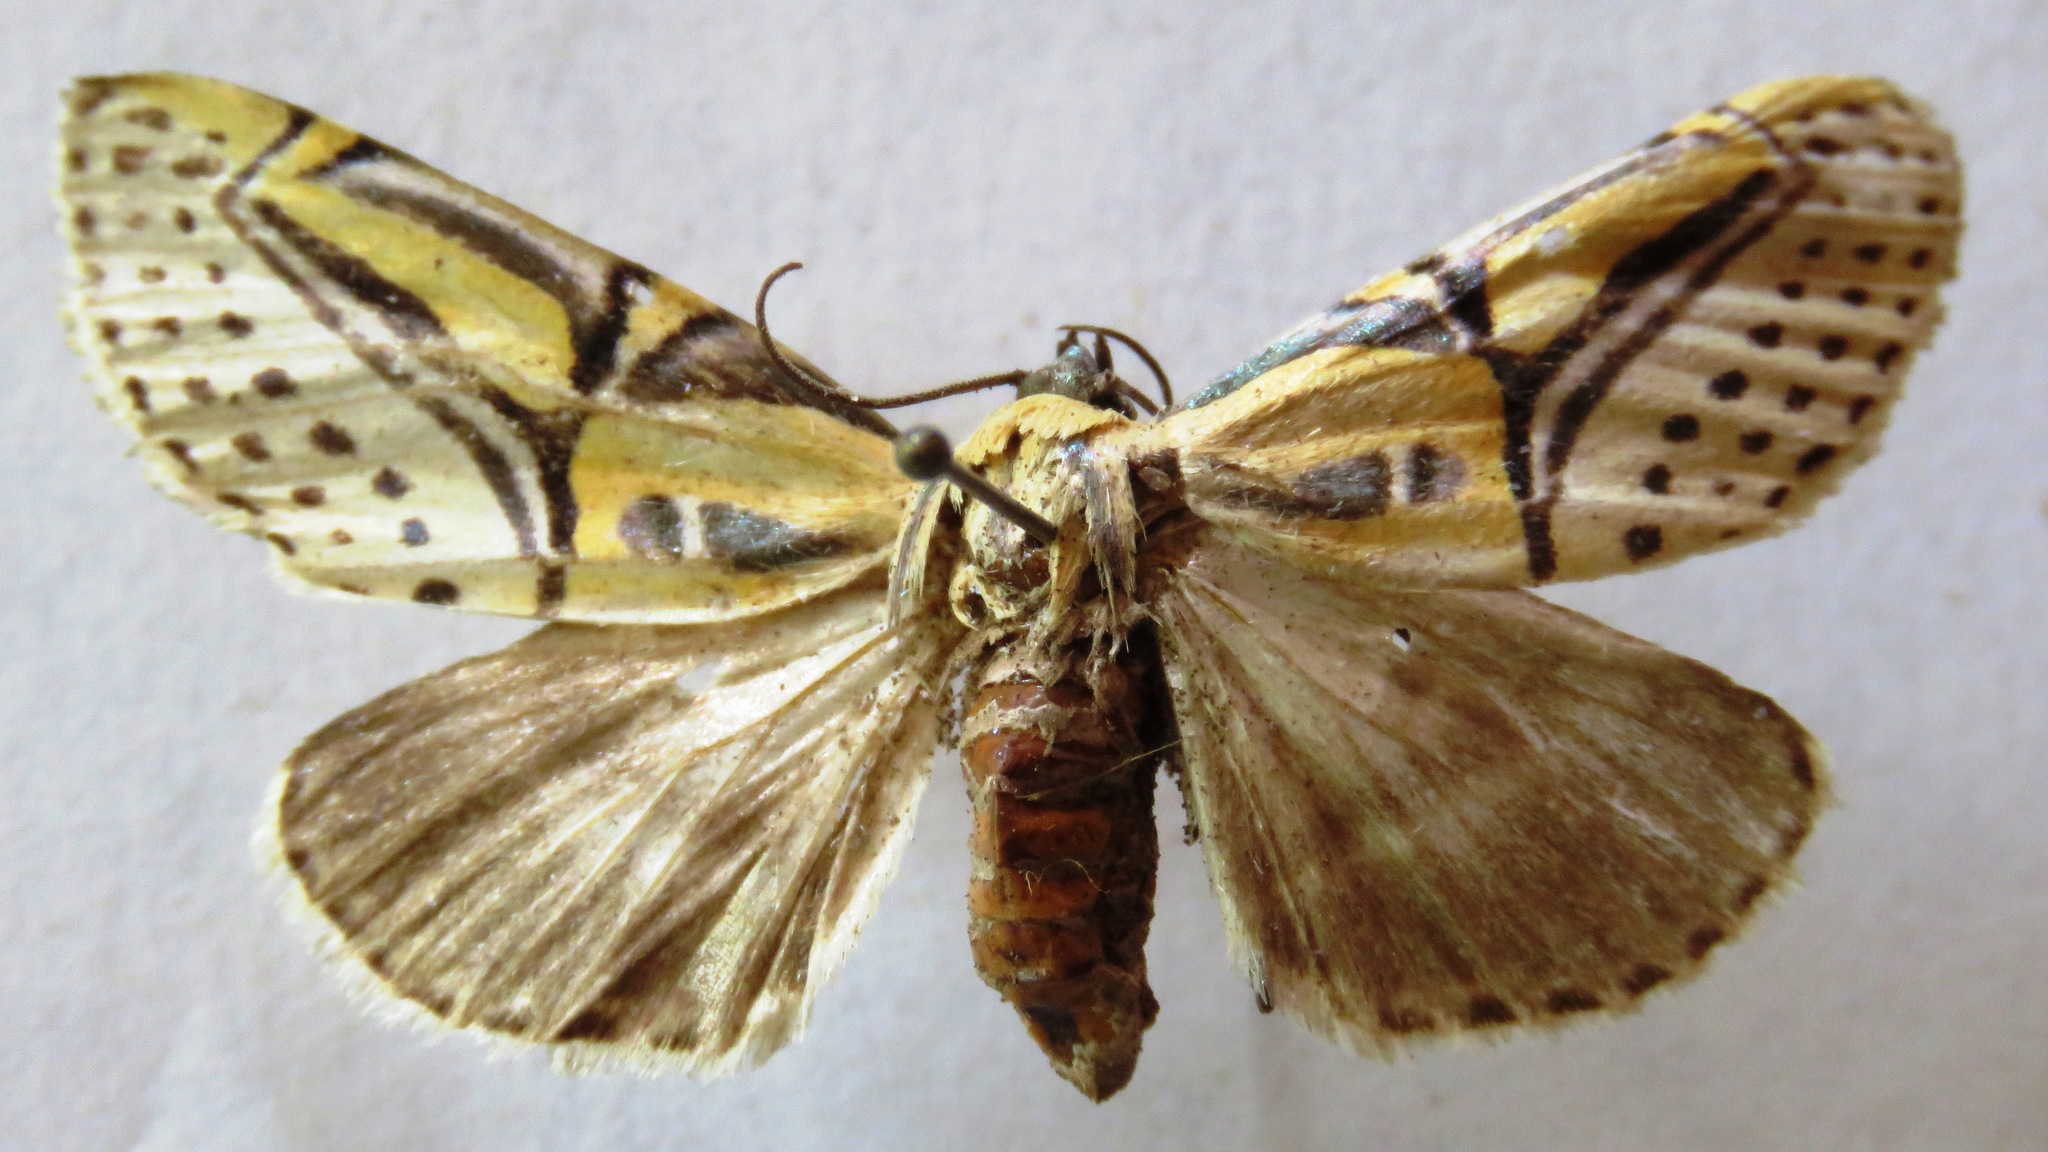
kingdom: Animalia
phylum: Arthropoda
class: Insecta
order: Lepidoptera
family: Erebidae
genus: Diphthera
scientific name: Diphthera festiva
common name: Hieroglyphic moth
